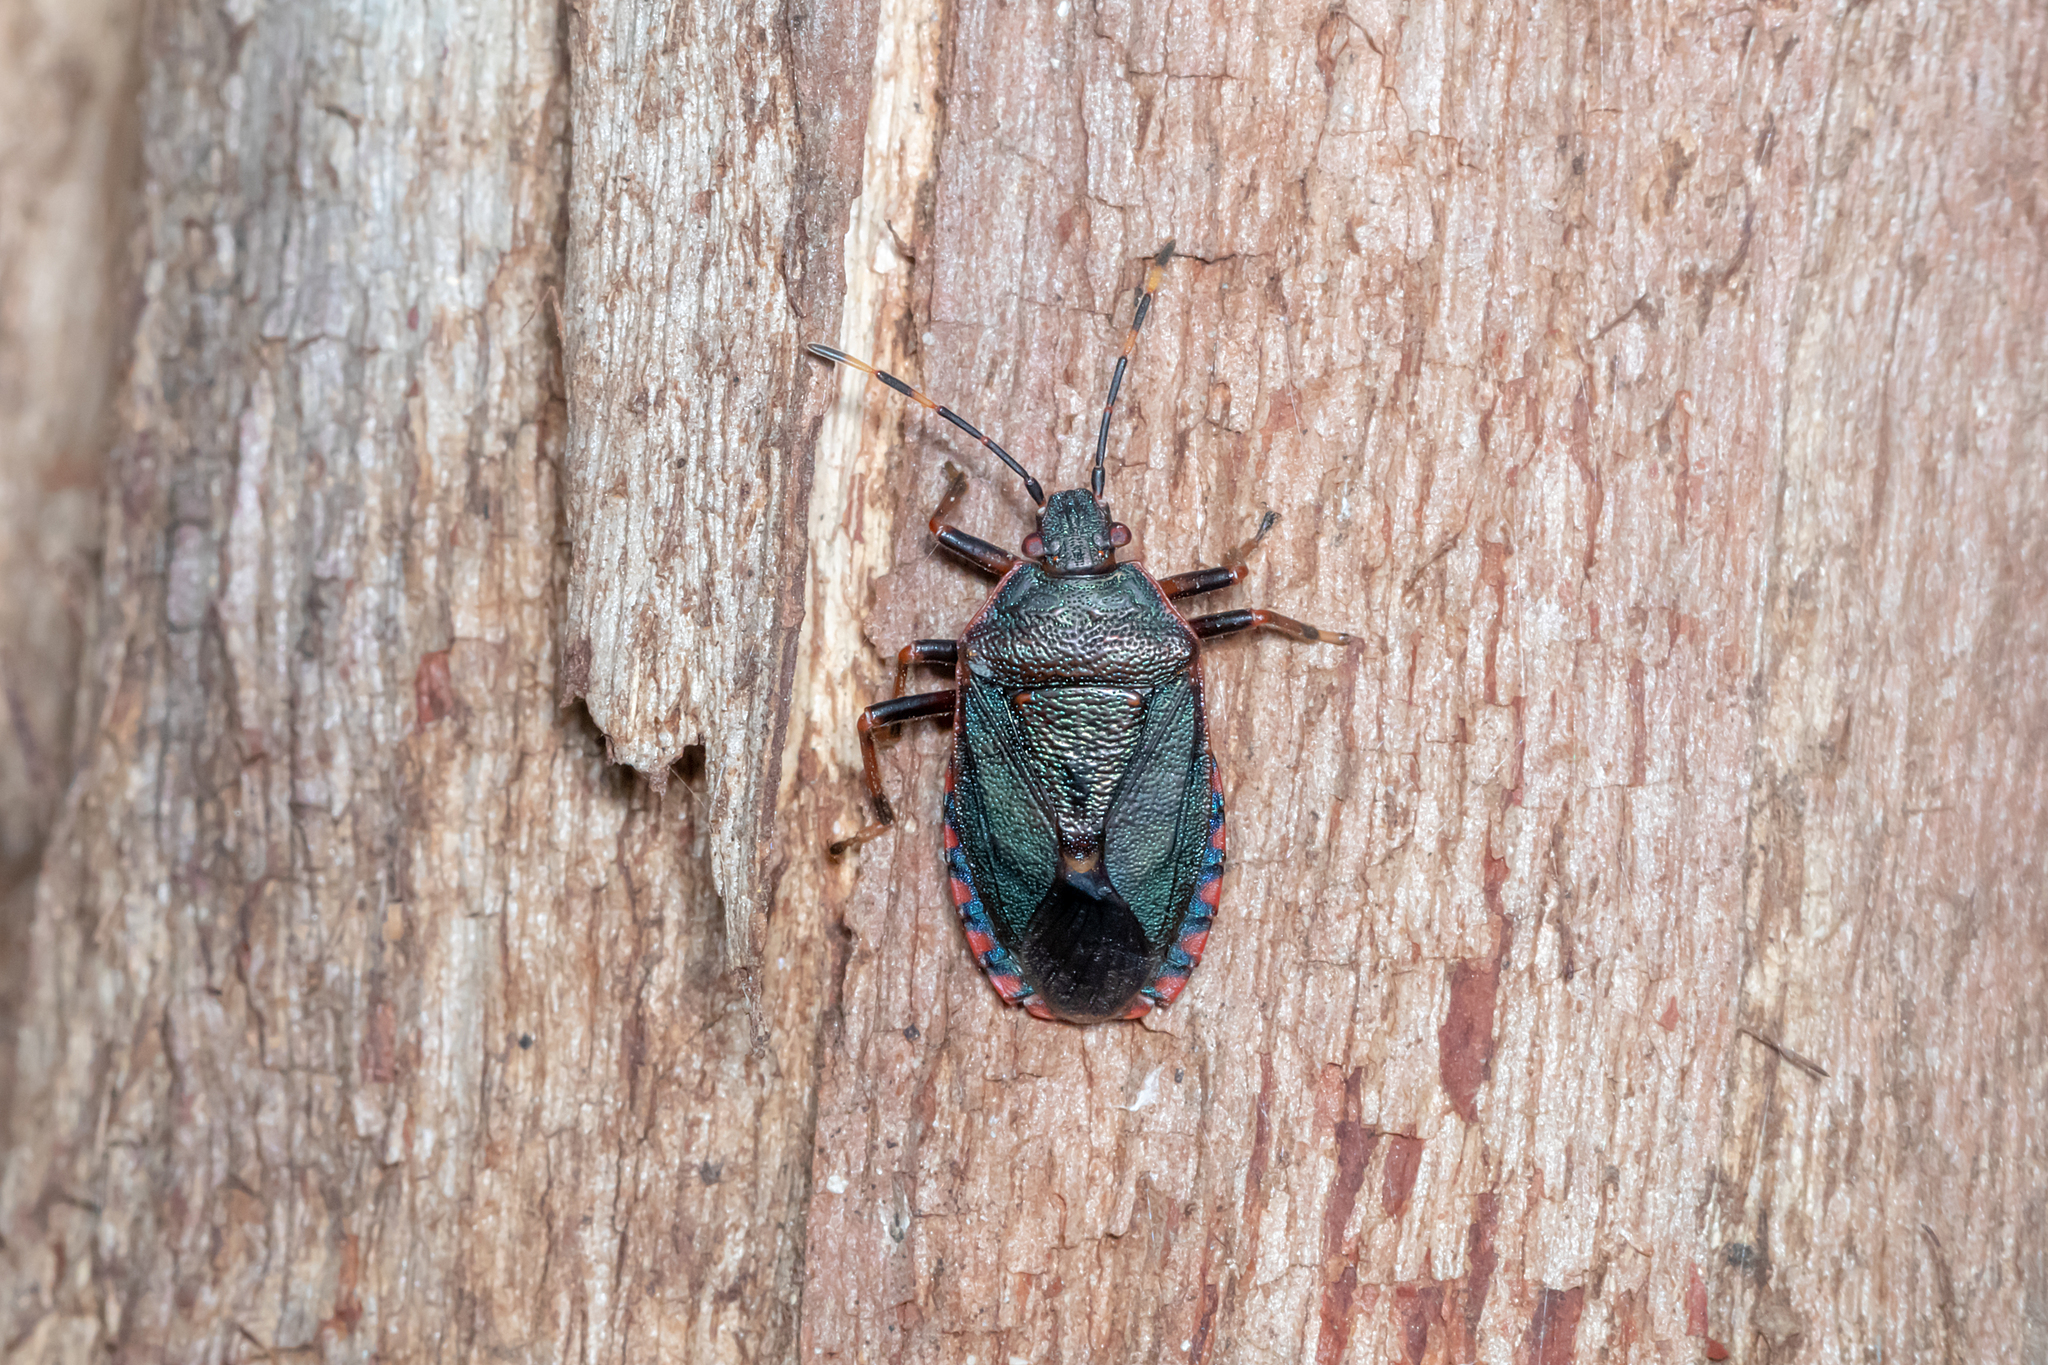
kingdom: Animalia
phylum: Arthropoda
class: Insecta
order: Hemiptera
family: Pentatomidae
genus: Notius
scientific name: Notius
